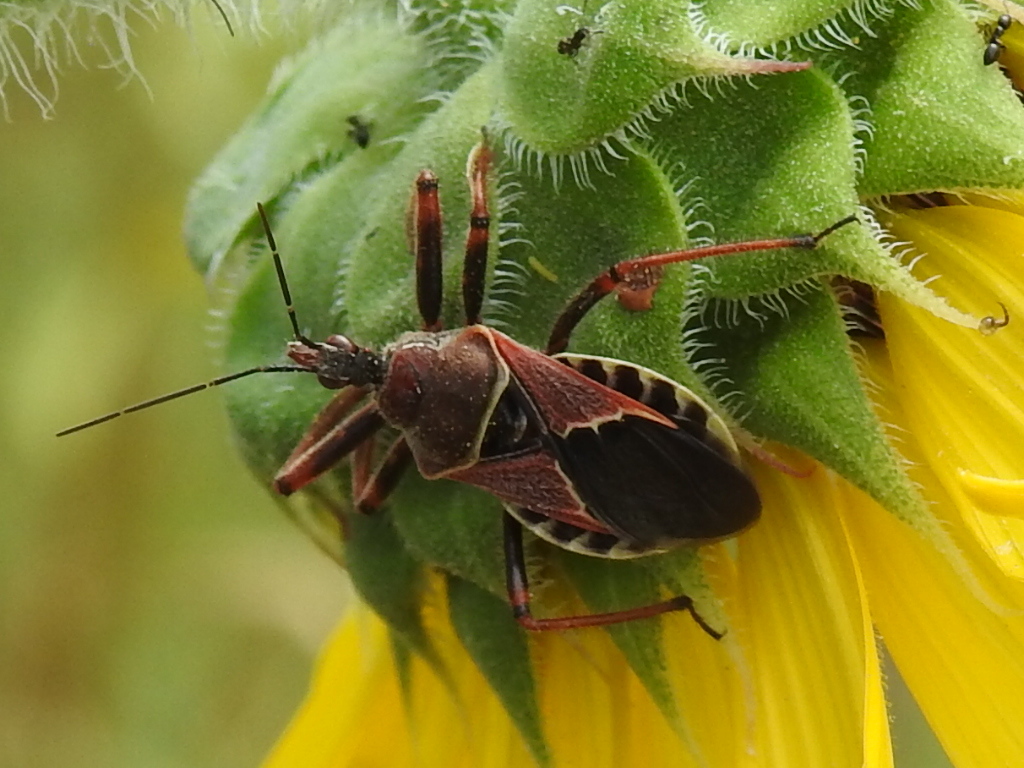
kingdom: Animalia
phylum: Arthropoda
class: Insecta
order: Hemiptera
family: Reduviidae
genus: Apiomerus
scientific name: Apiomerus spissipes
